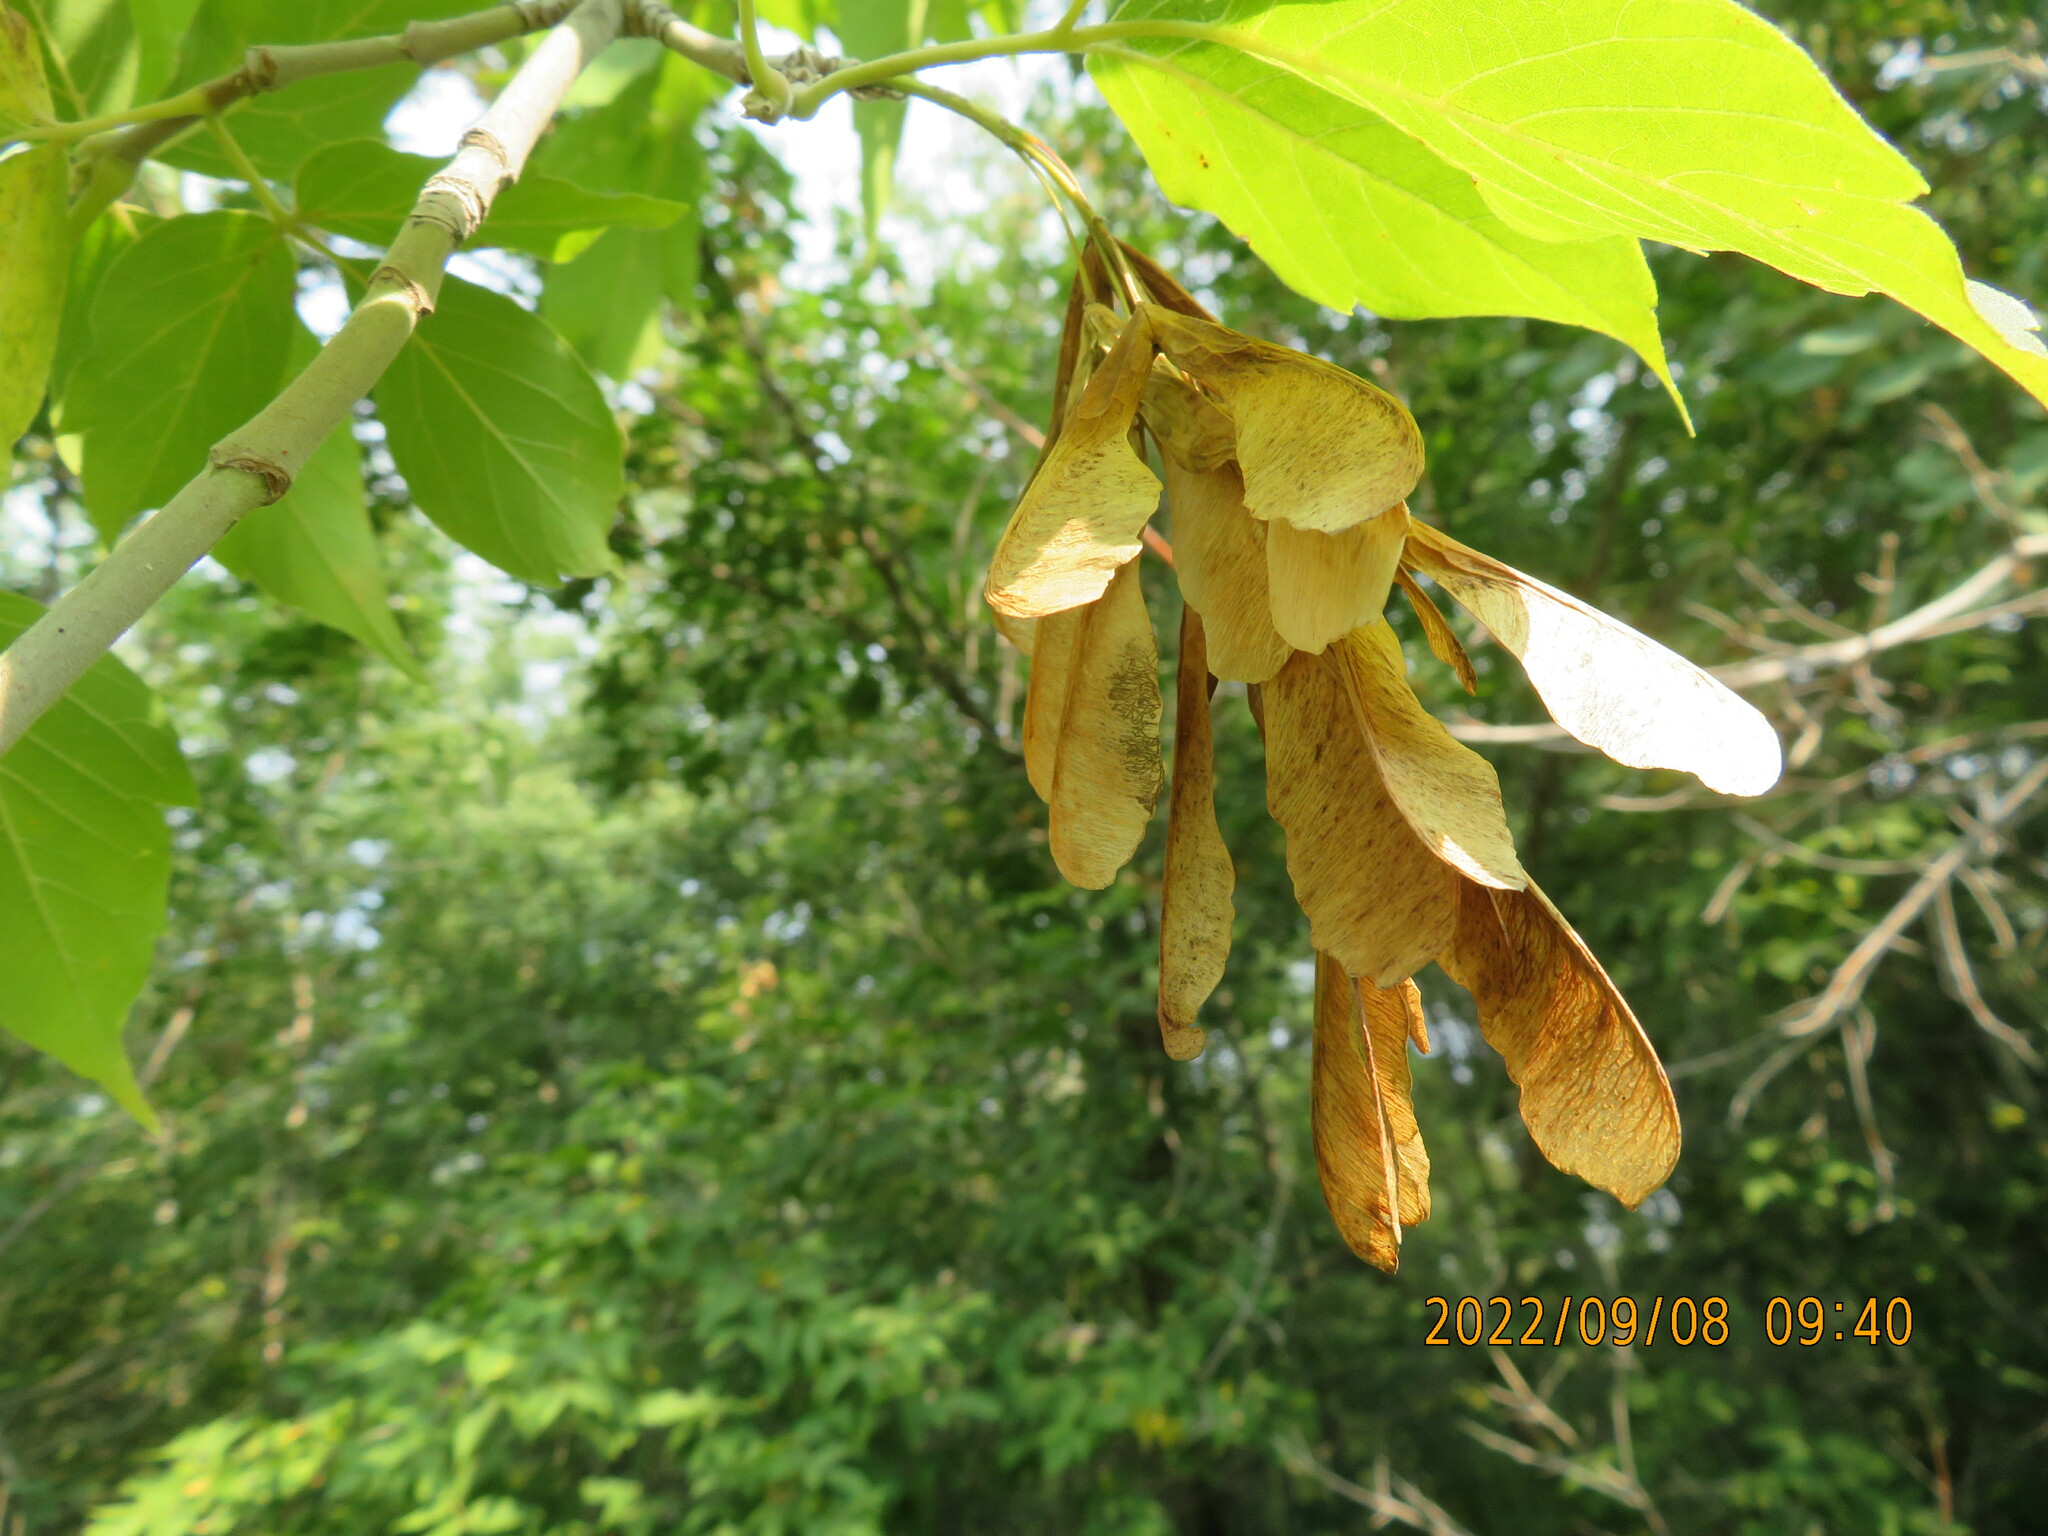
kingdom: Plantae
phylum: Tracheophyta
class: Magnoliopsida
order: Sapindales
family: Sapindaceae
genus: Acer
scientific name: Acer negundo
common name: Ashleaf maple
